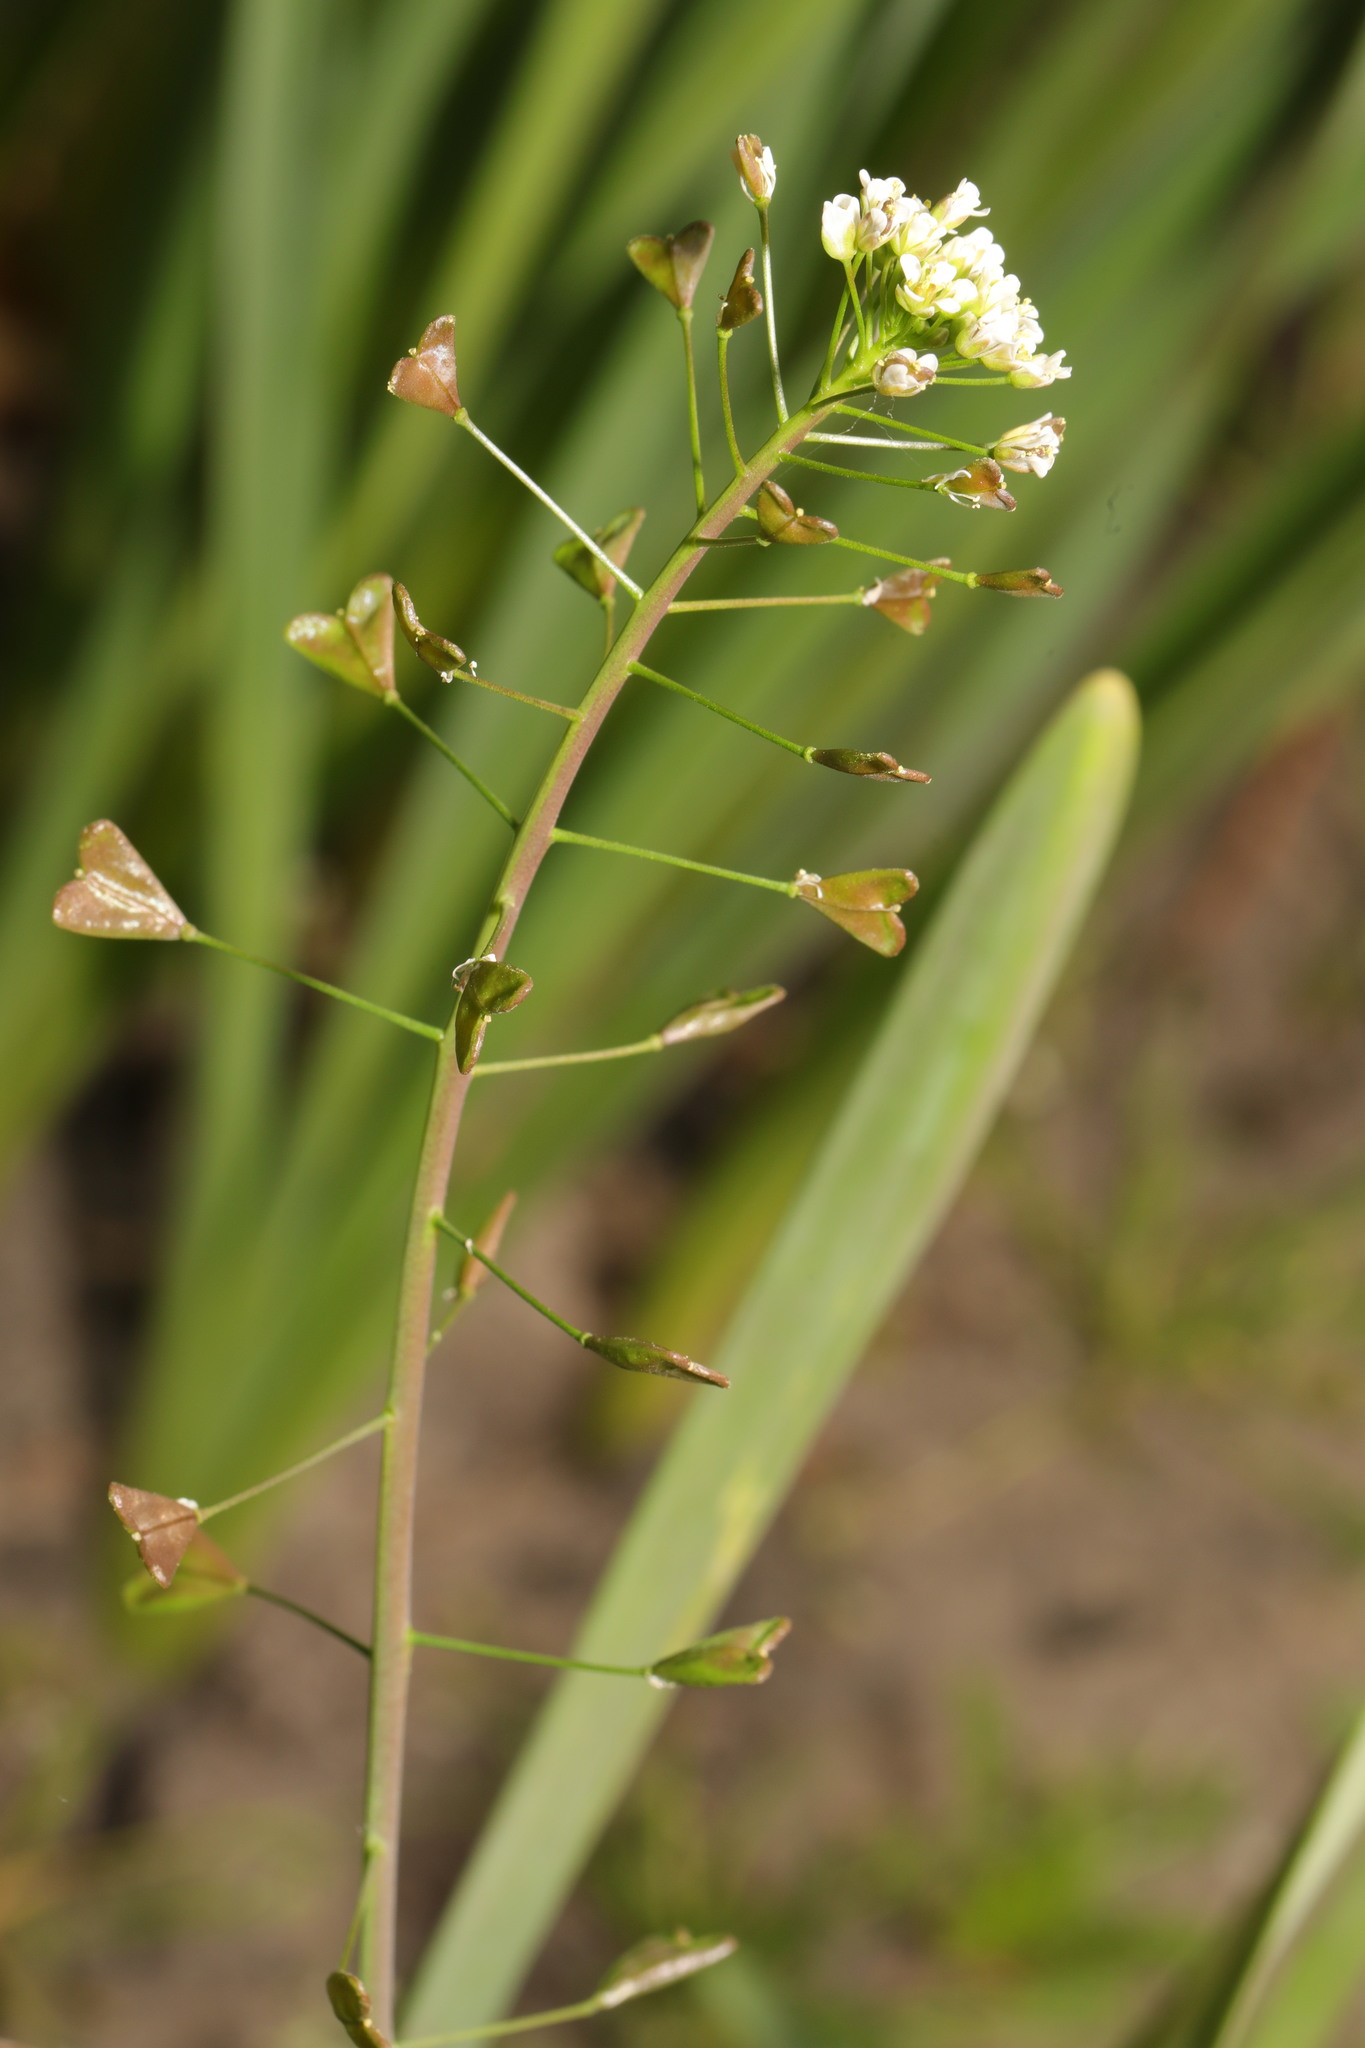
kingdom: Plantae
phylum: Tracheophyta
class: Magnoliopsida
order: Brassicales
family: Brassicaceae
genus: Capsella
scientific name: Capsella bursa-pastoris
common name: Shepherd's purse
